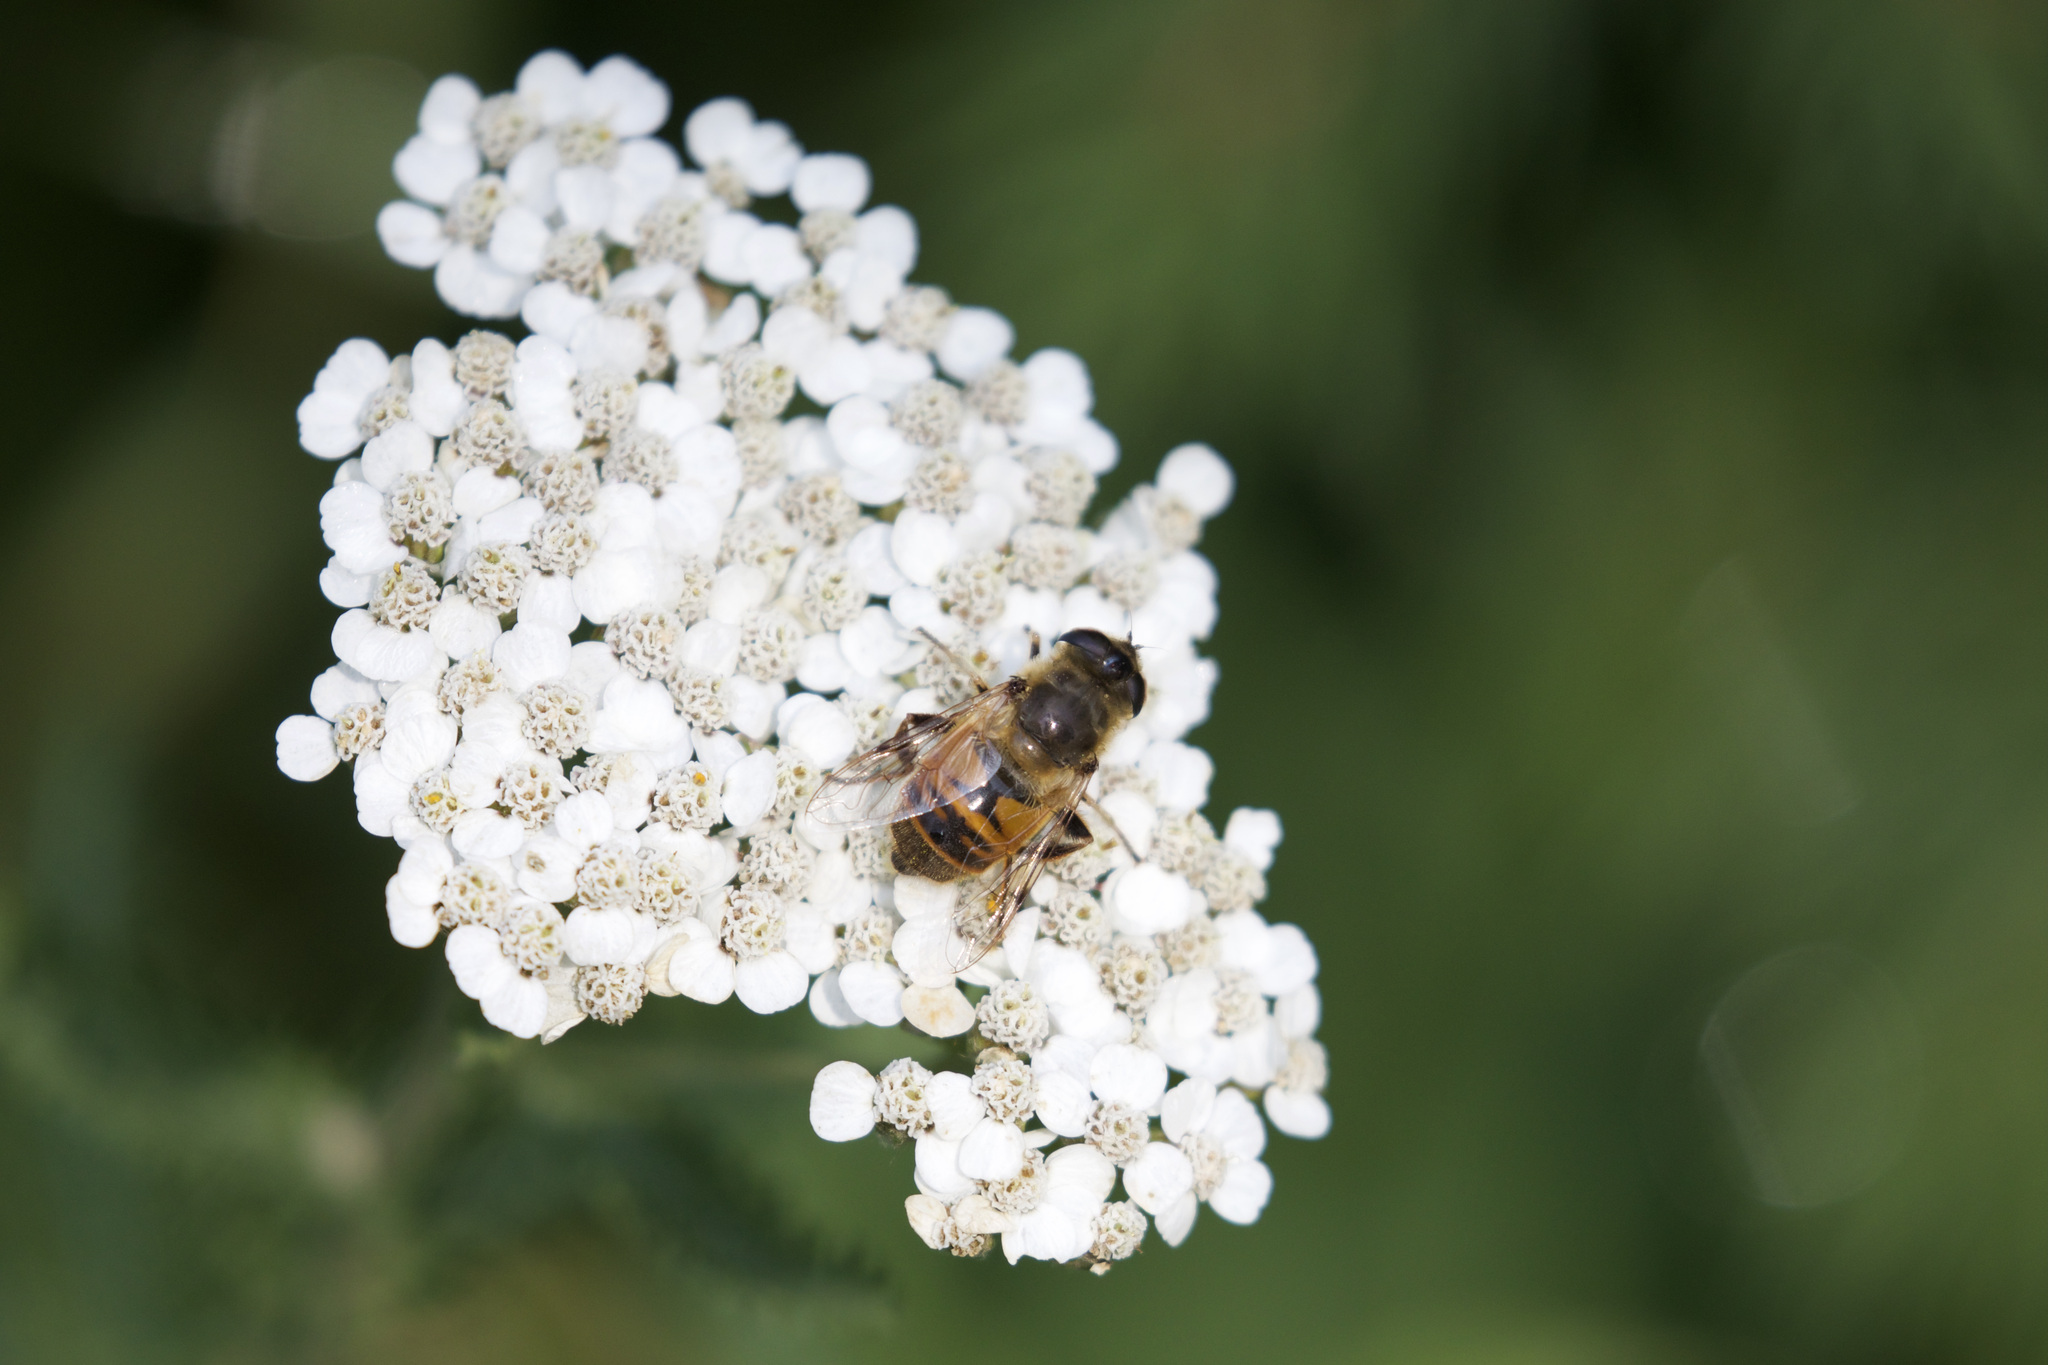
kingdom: Animalia
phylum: Arthropoda
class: Insecta
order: Diptera
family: Syrphidae
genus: Eristalis
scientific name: Eristalis tenax
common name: Drone fly
